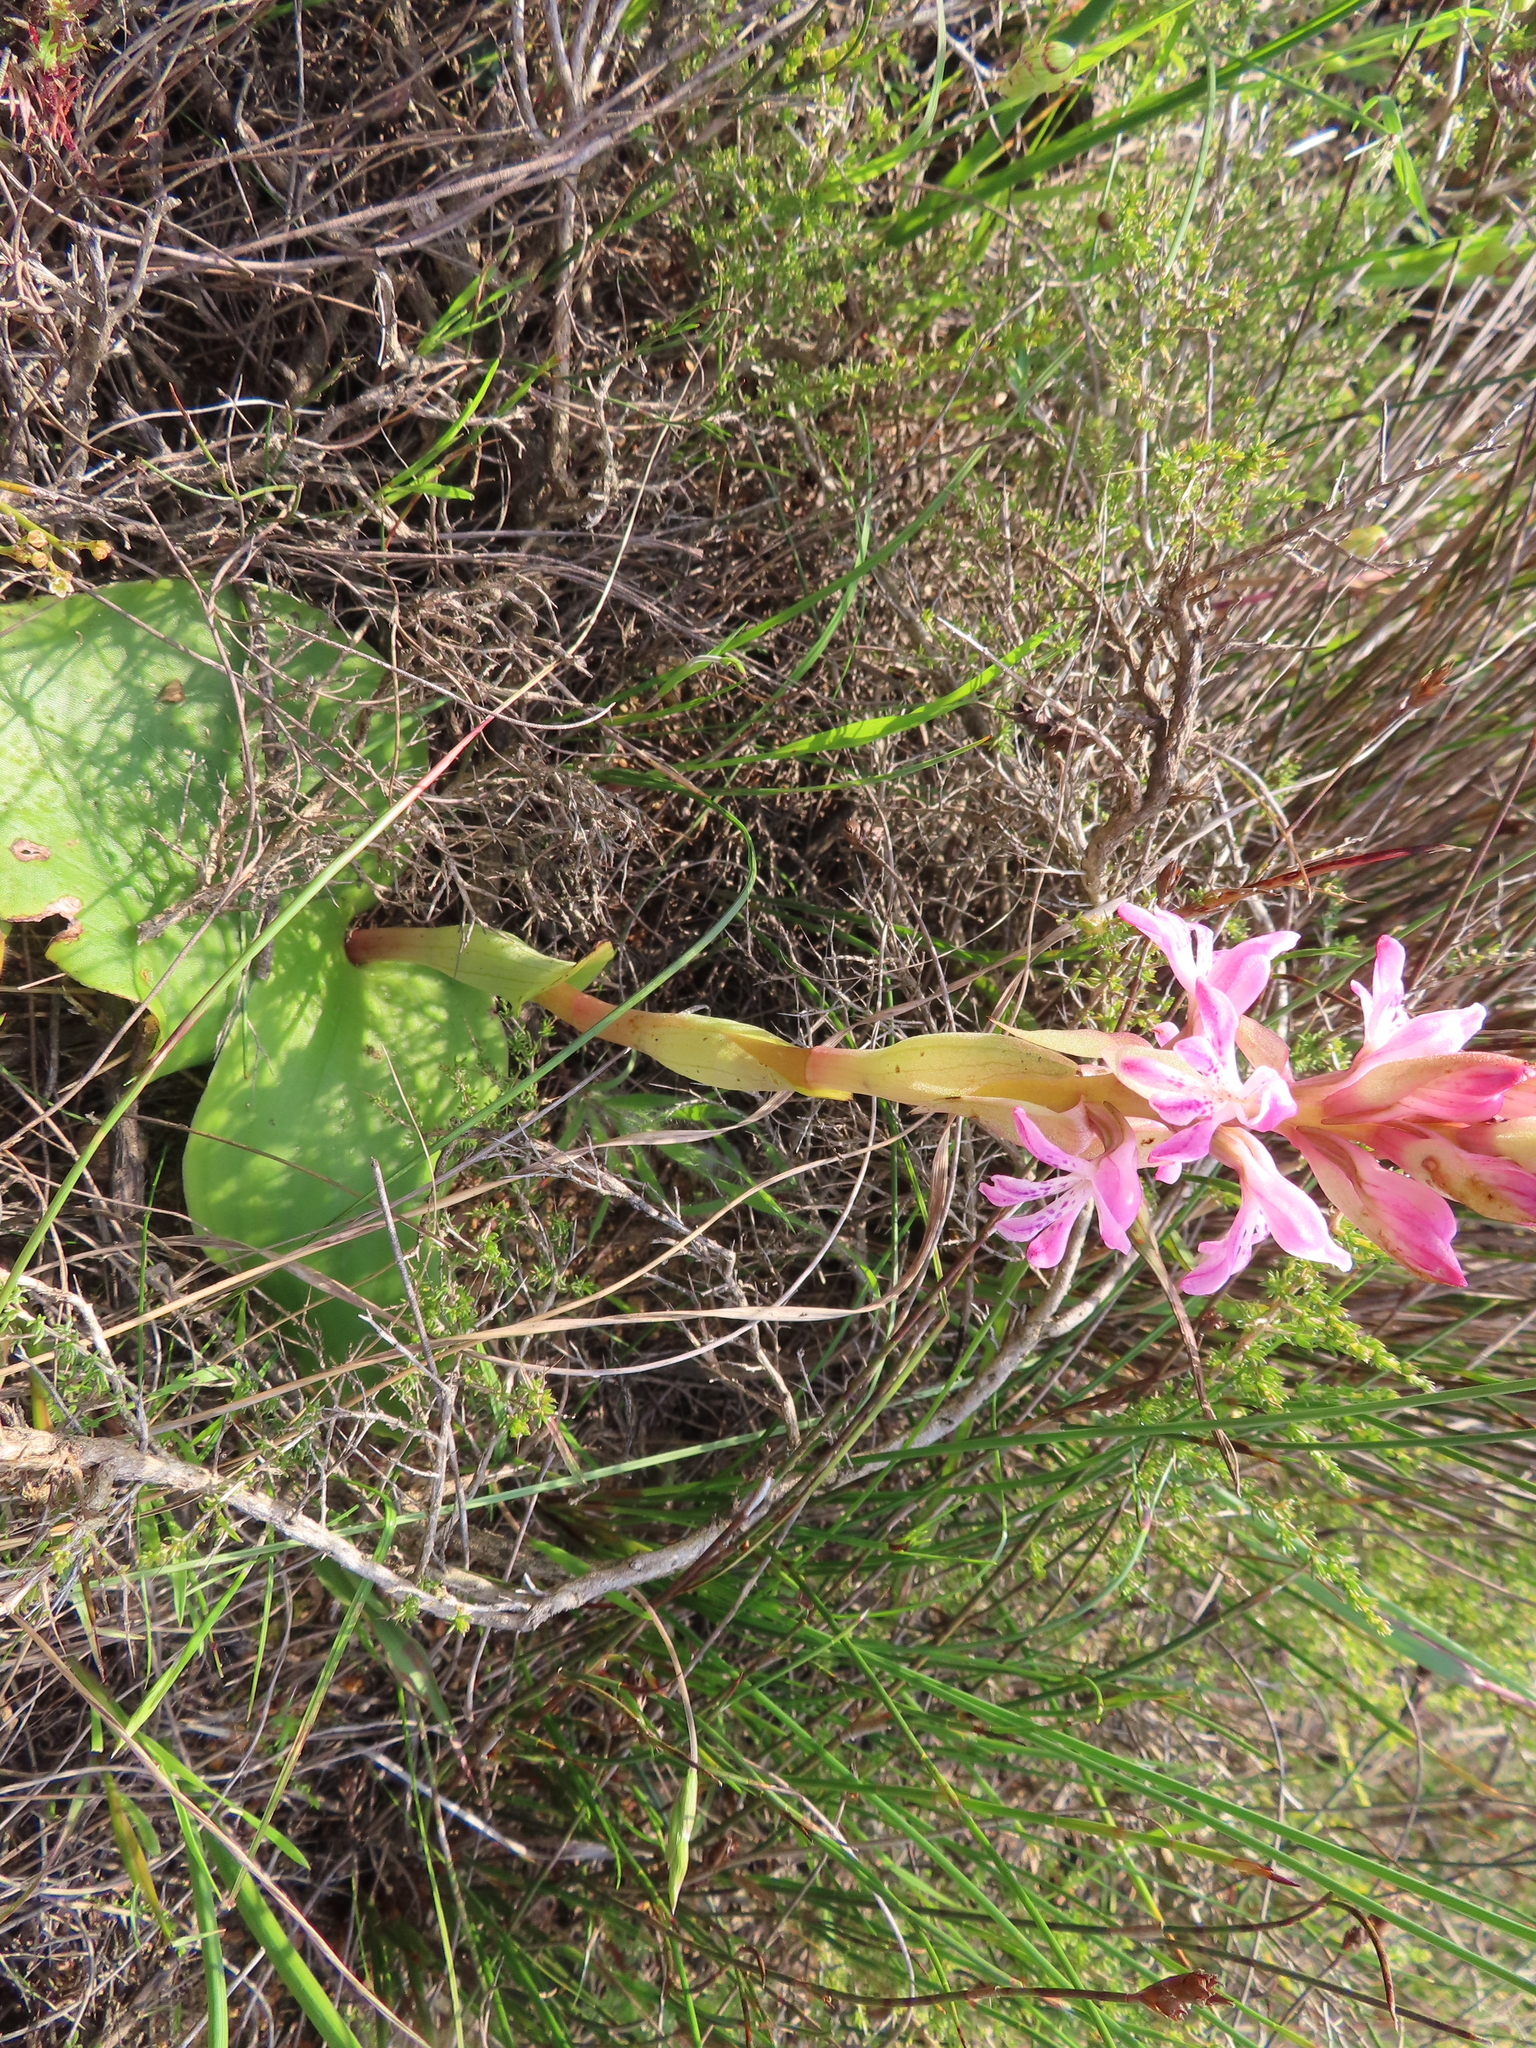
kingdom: Plantae
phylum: Tracheophyta
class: Liliopsida
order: Asparagales
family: Orchidaceae
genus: Satyrium
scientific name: Satyrium erectum
